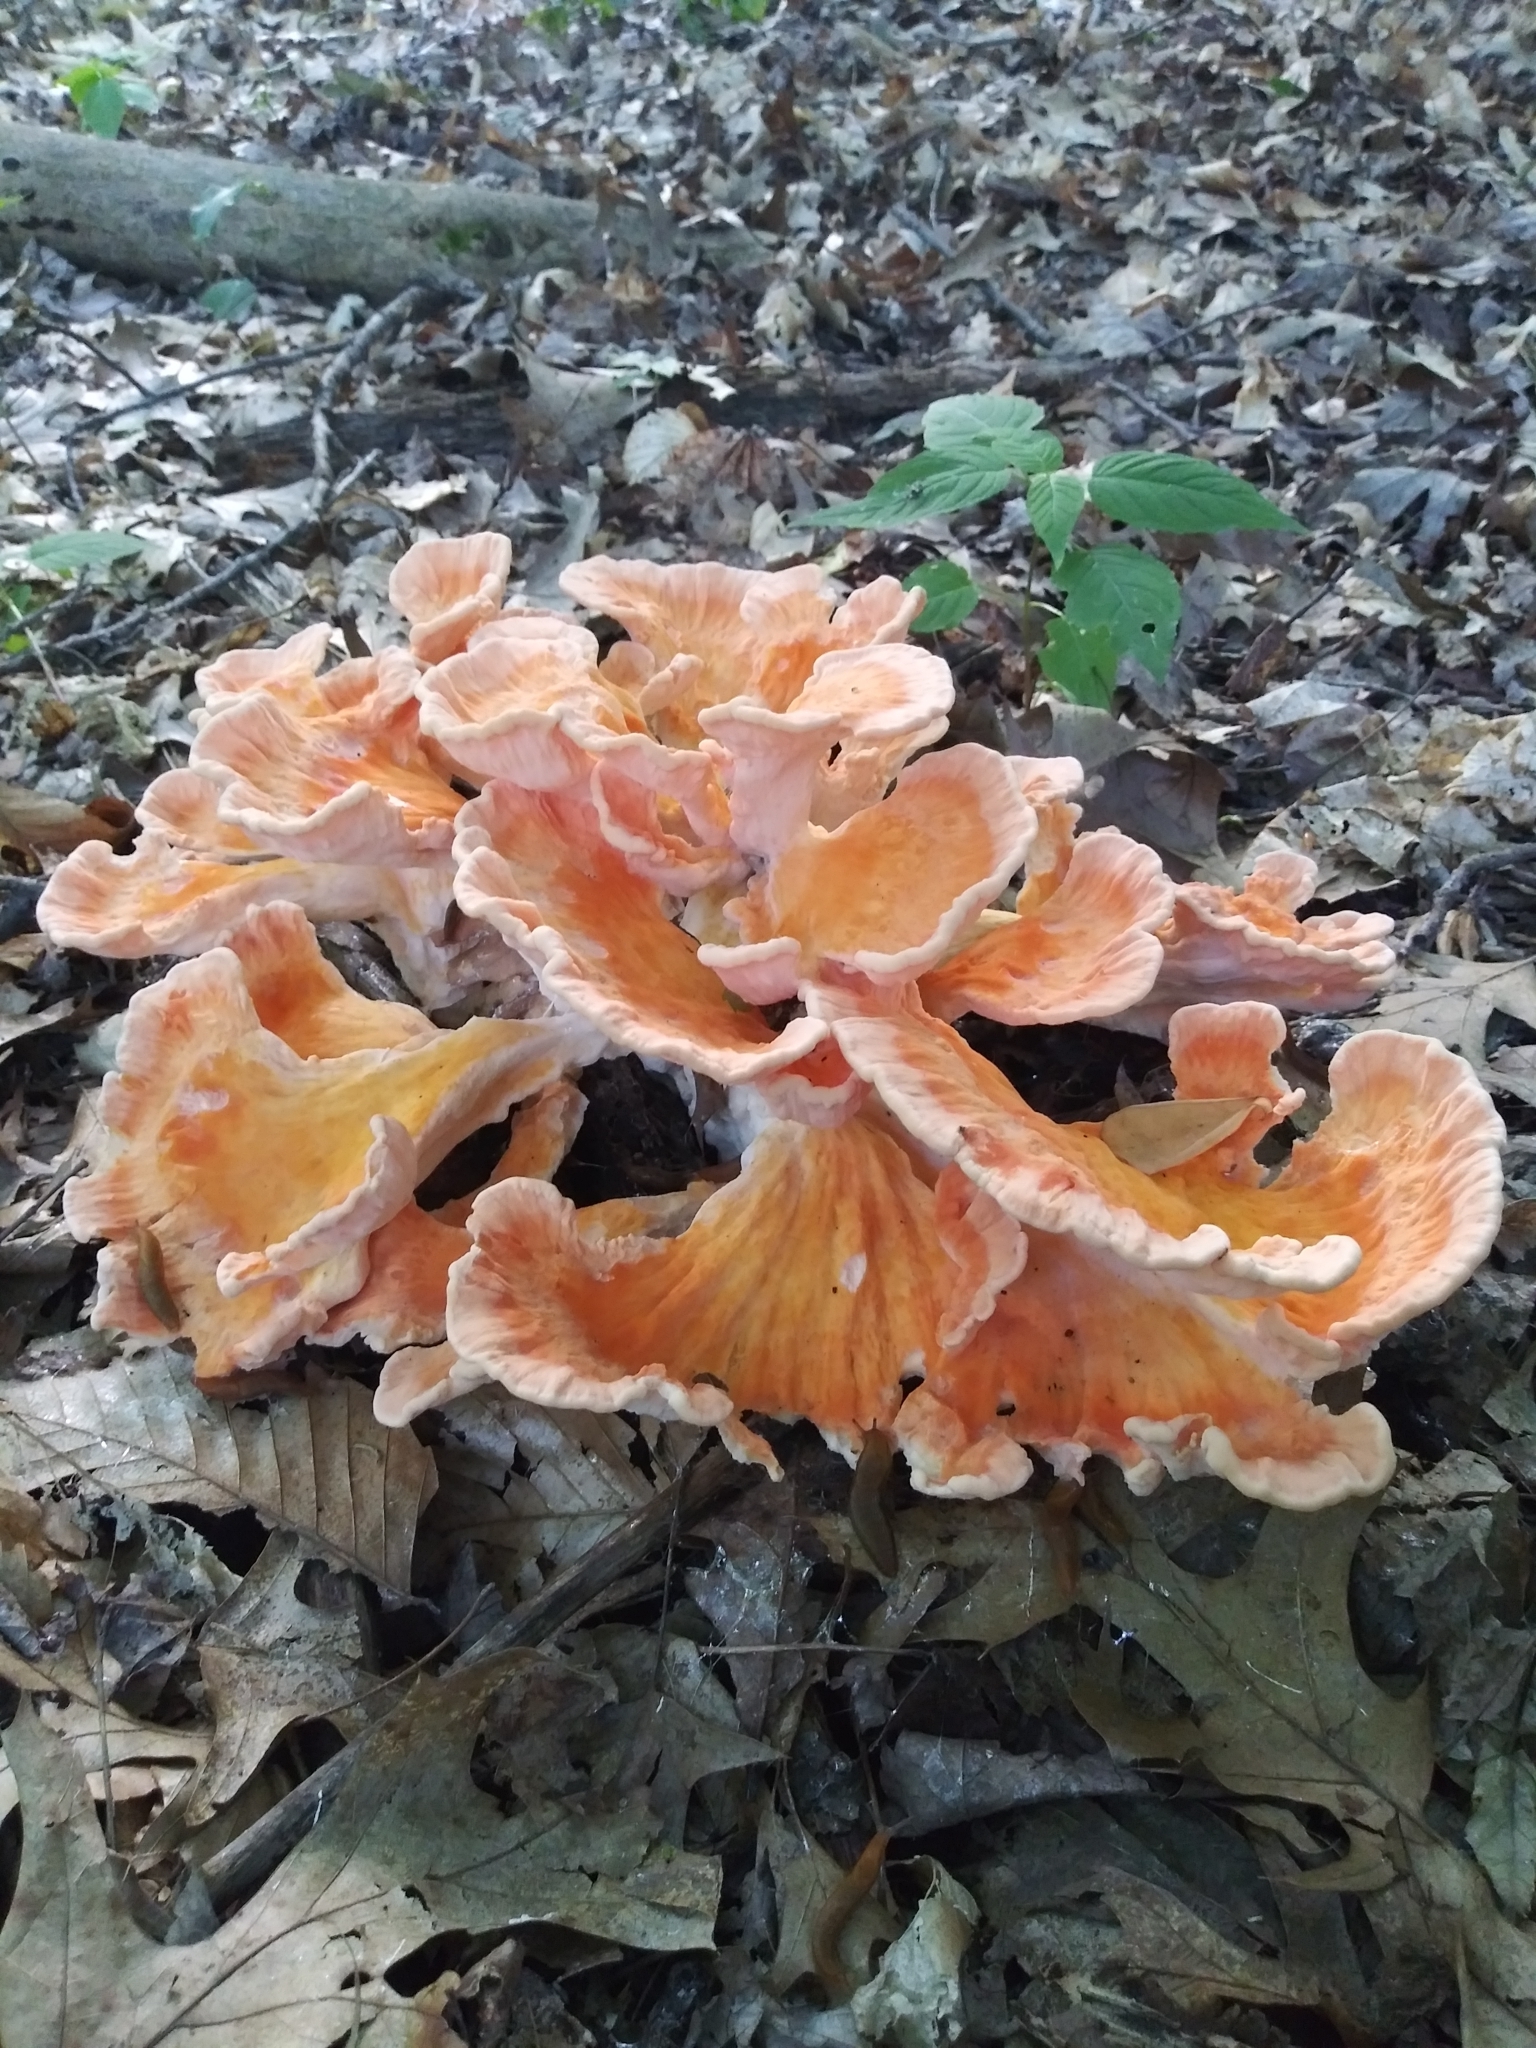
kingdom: Fungi
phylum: Basidiomycota
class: Agaricomycetes
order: Polyporales
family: Laetiporaceae
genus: Laetiporus
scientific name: Laetiporus sulphureus
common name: Chicken of the woods
